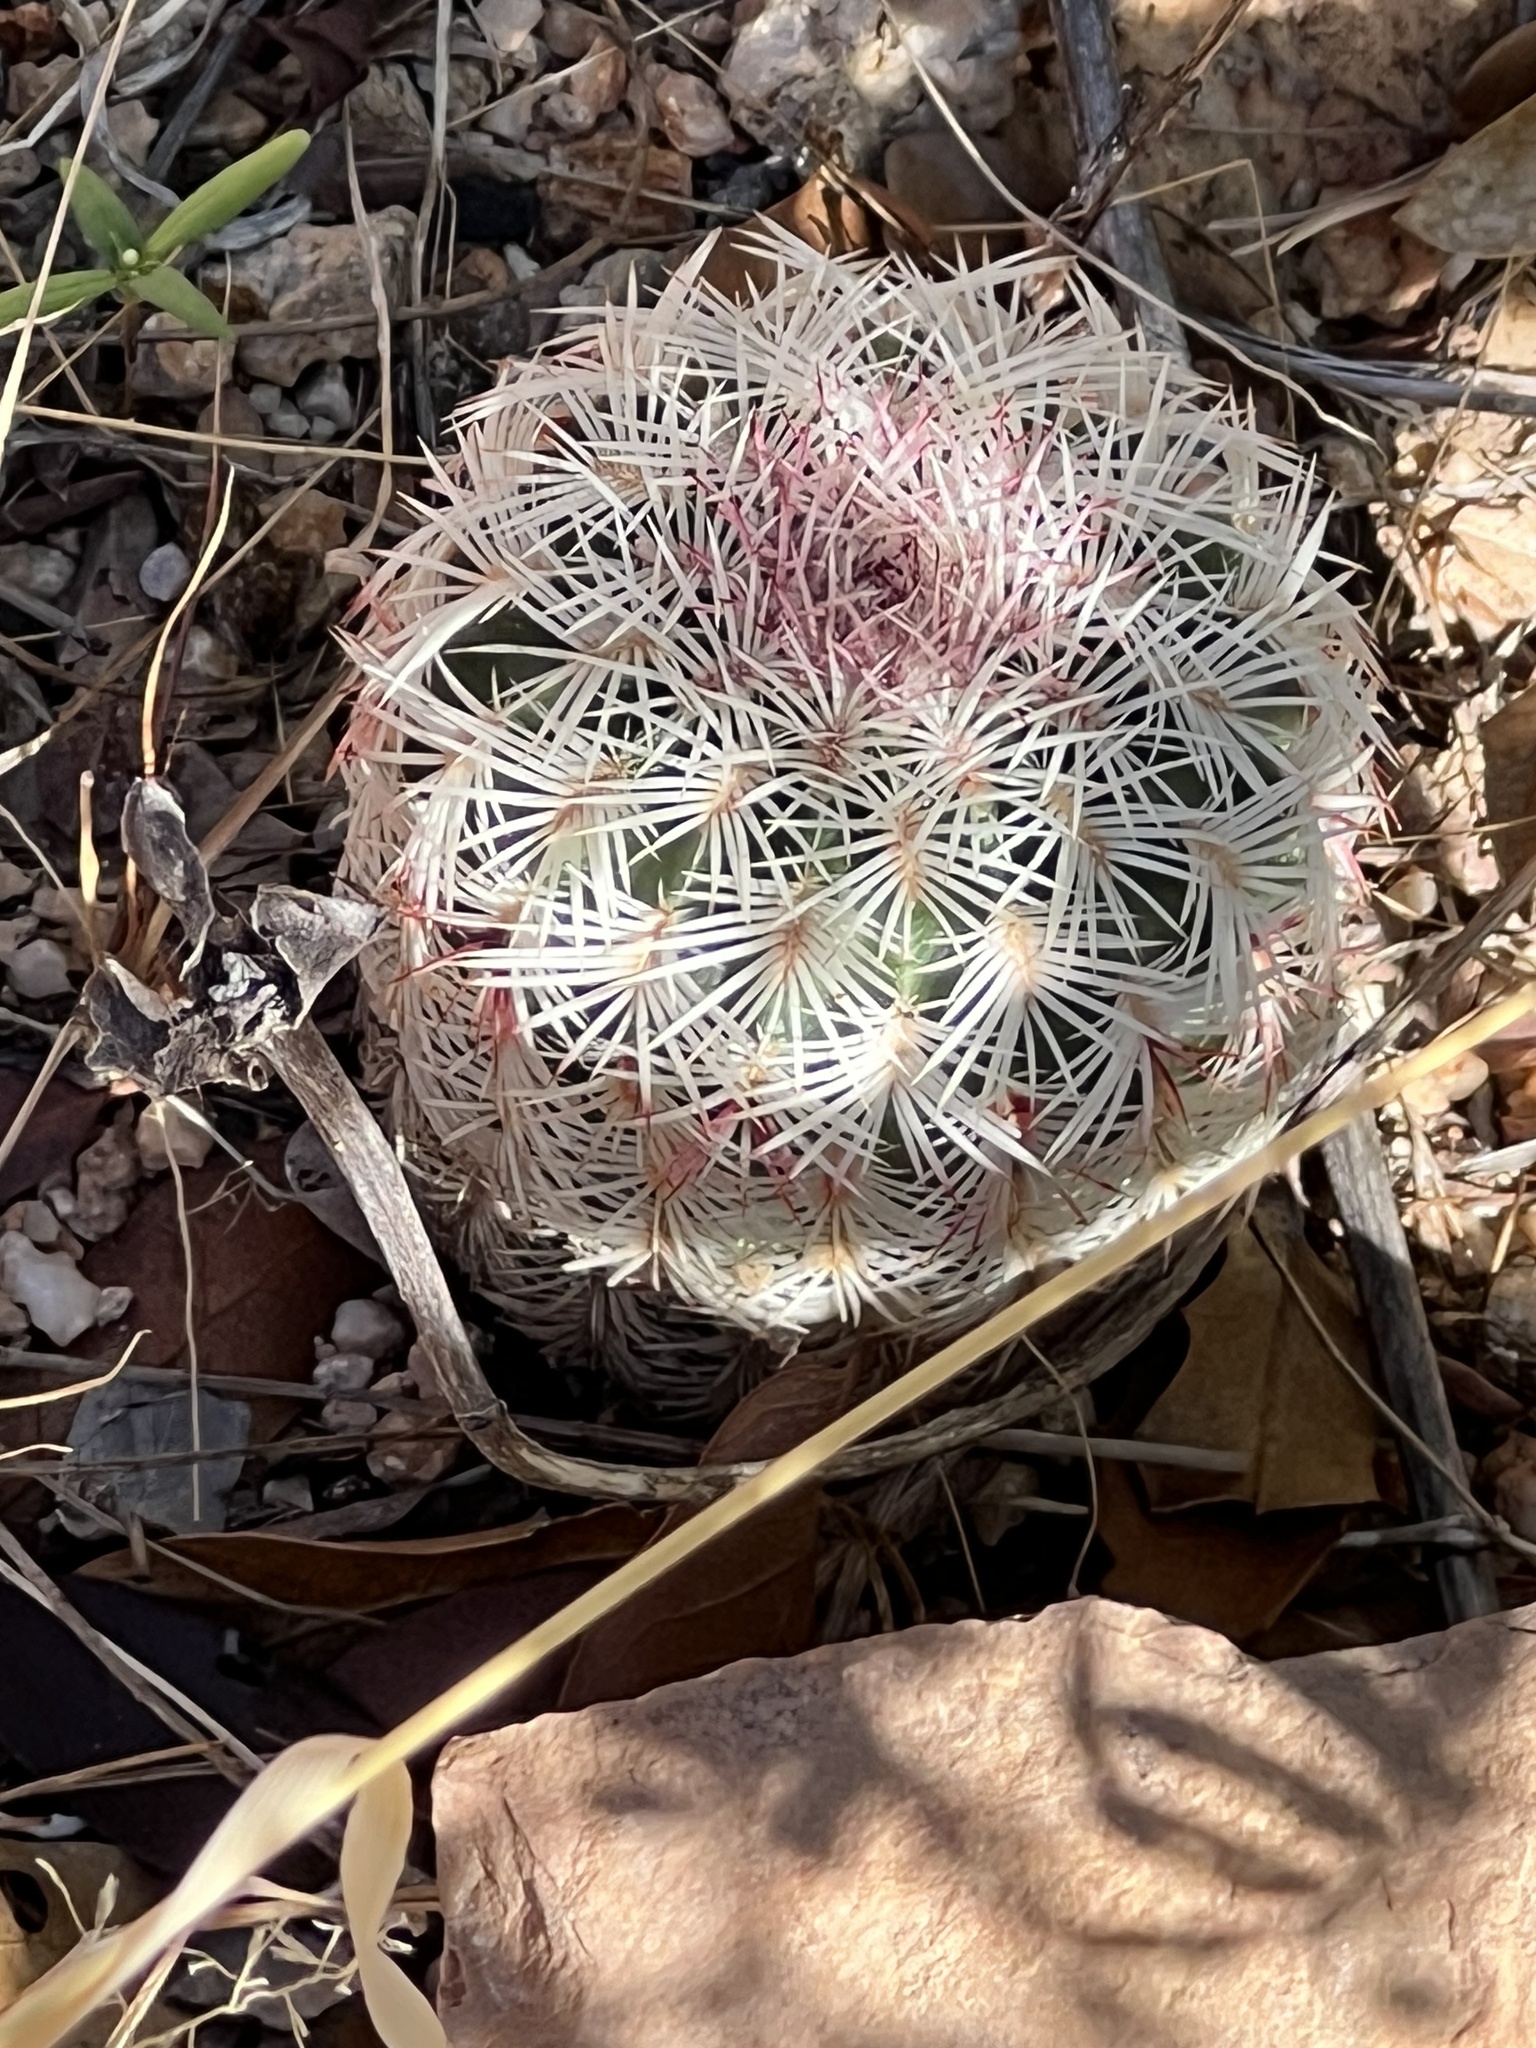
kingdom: Plantae
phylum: Tracheophyta
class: Magnoliopsida
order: Caryophyllales
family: Cactaceae
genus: Echinocereus
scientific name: Echinocereus rigidissimus
